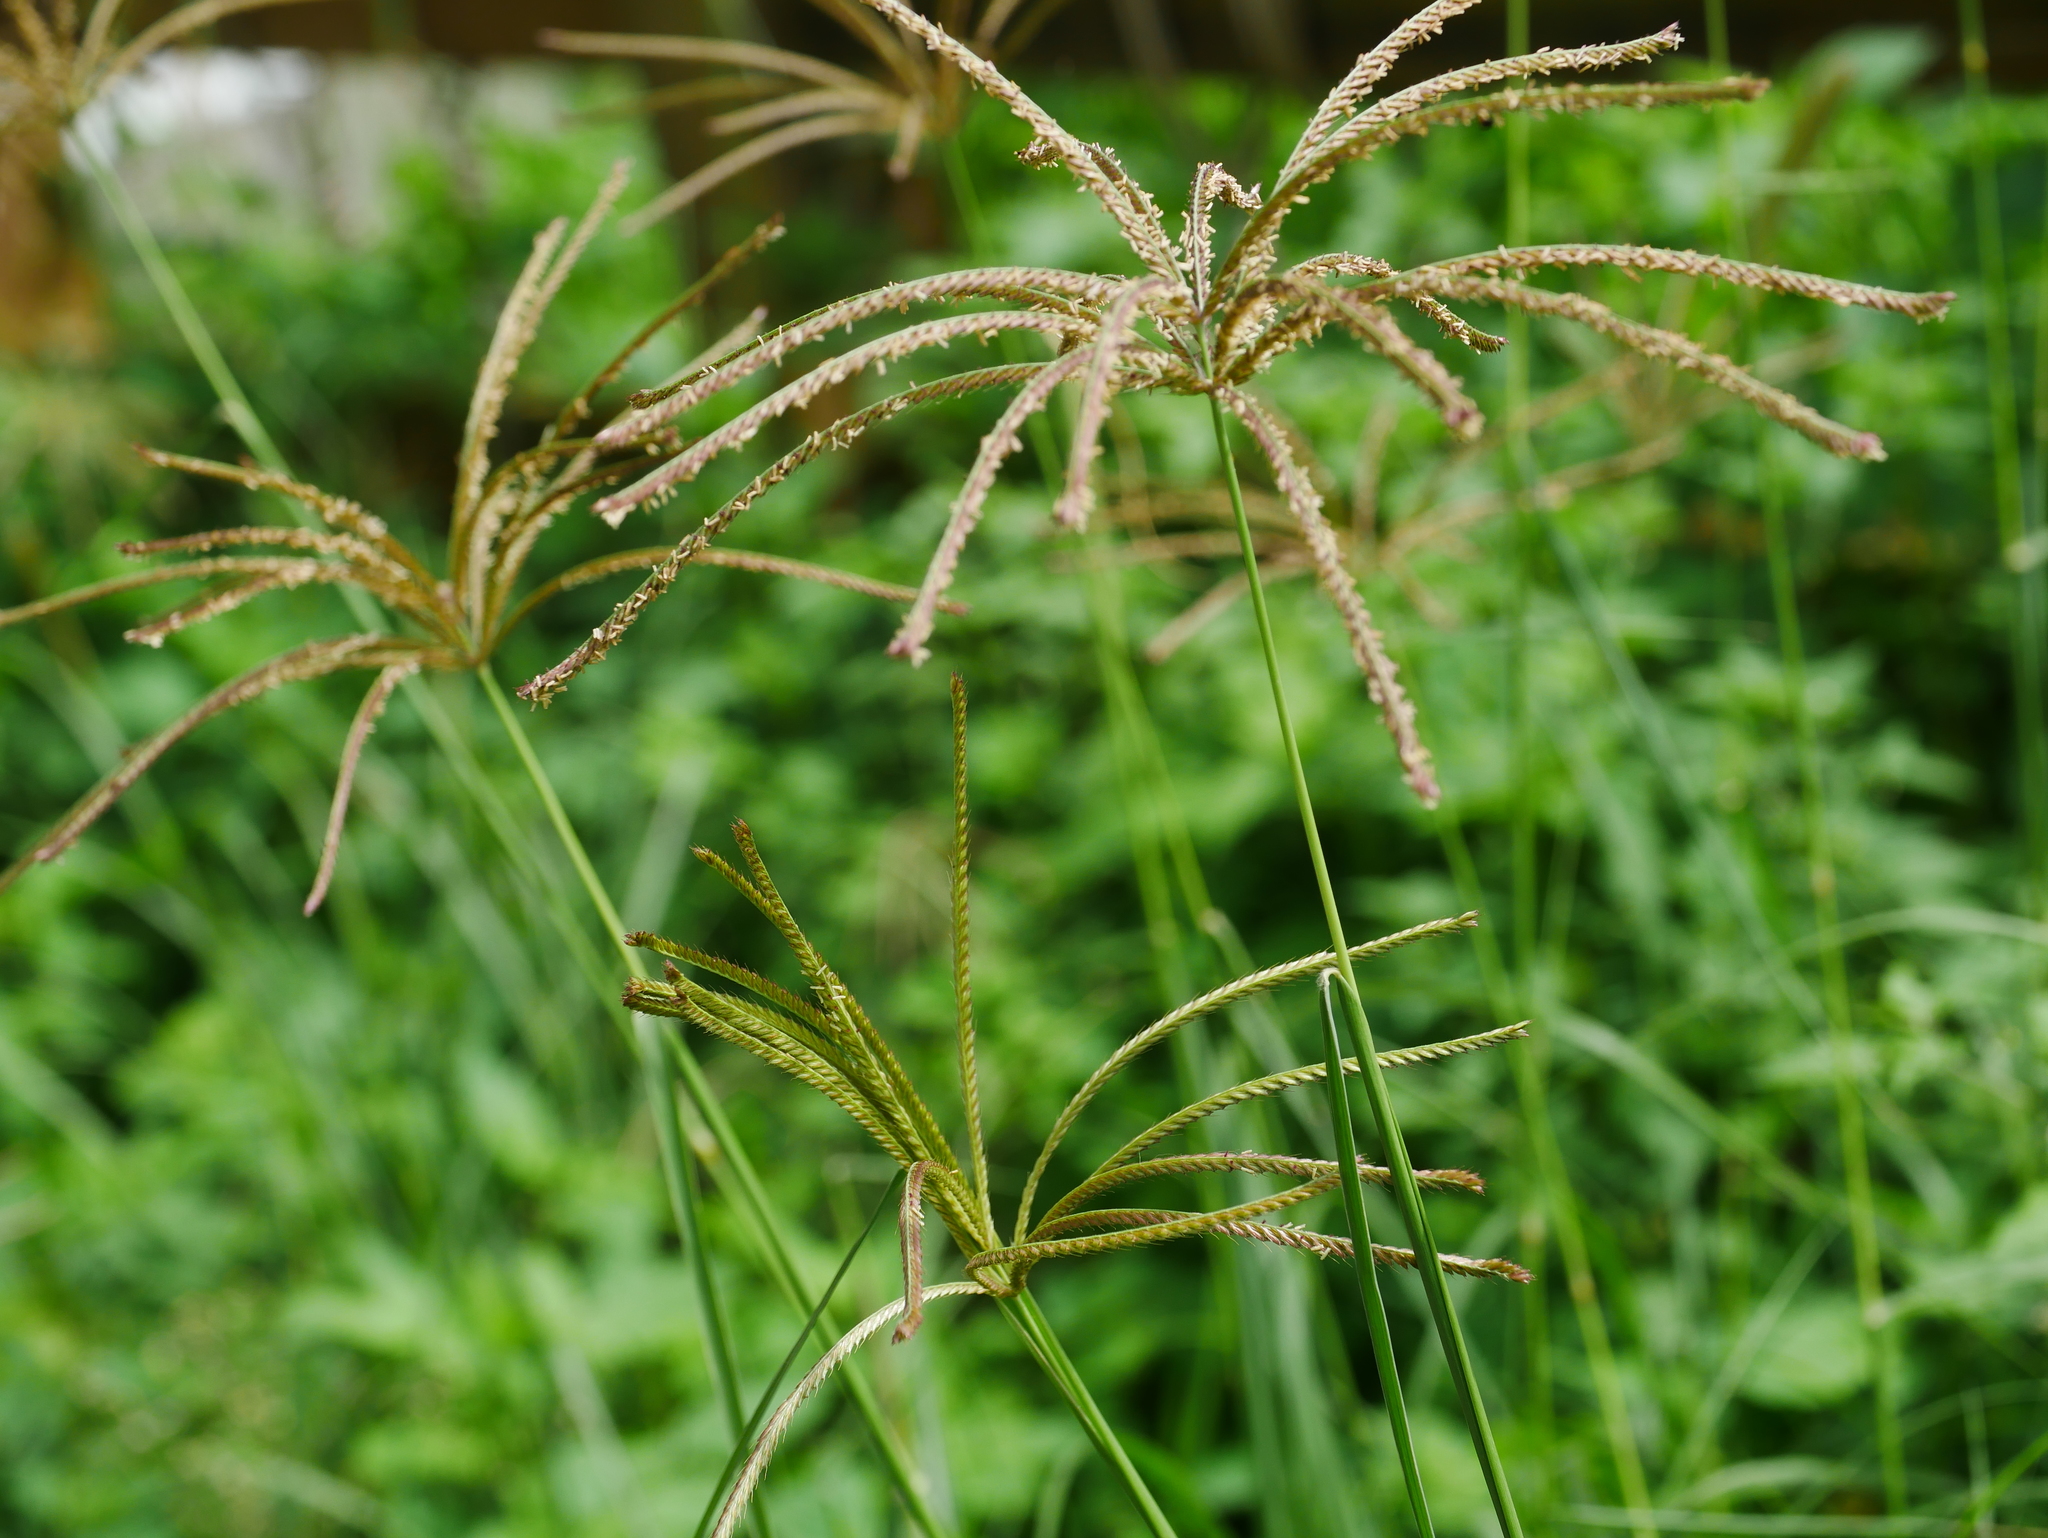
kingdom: Plantae
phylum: Tracheophyta
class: Liliopsida
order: Poales
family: Poaceae
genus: Chloris
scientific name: Chloris gayana
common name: Rhodes grass
